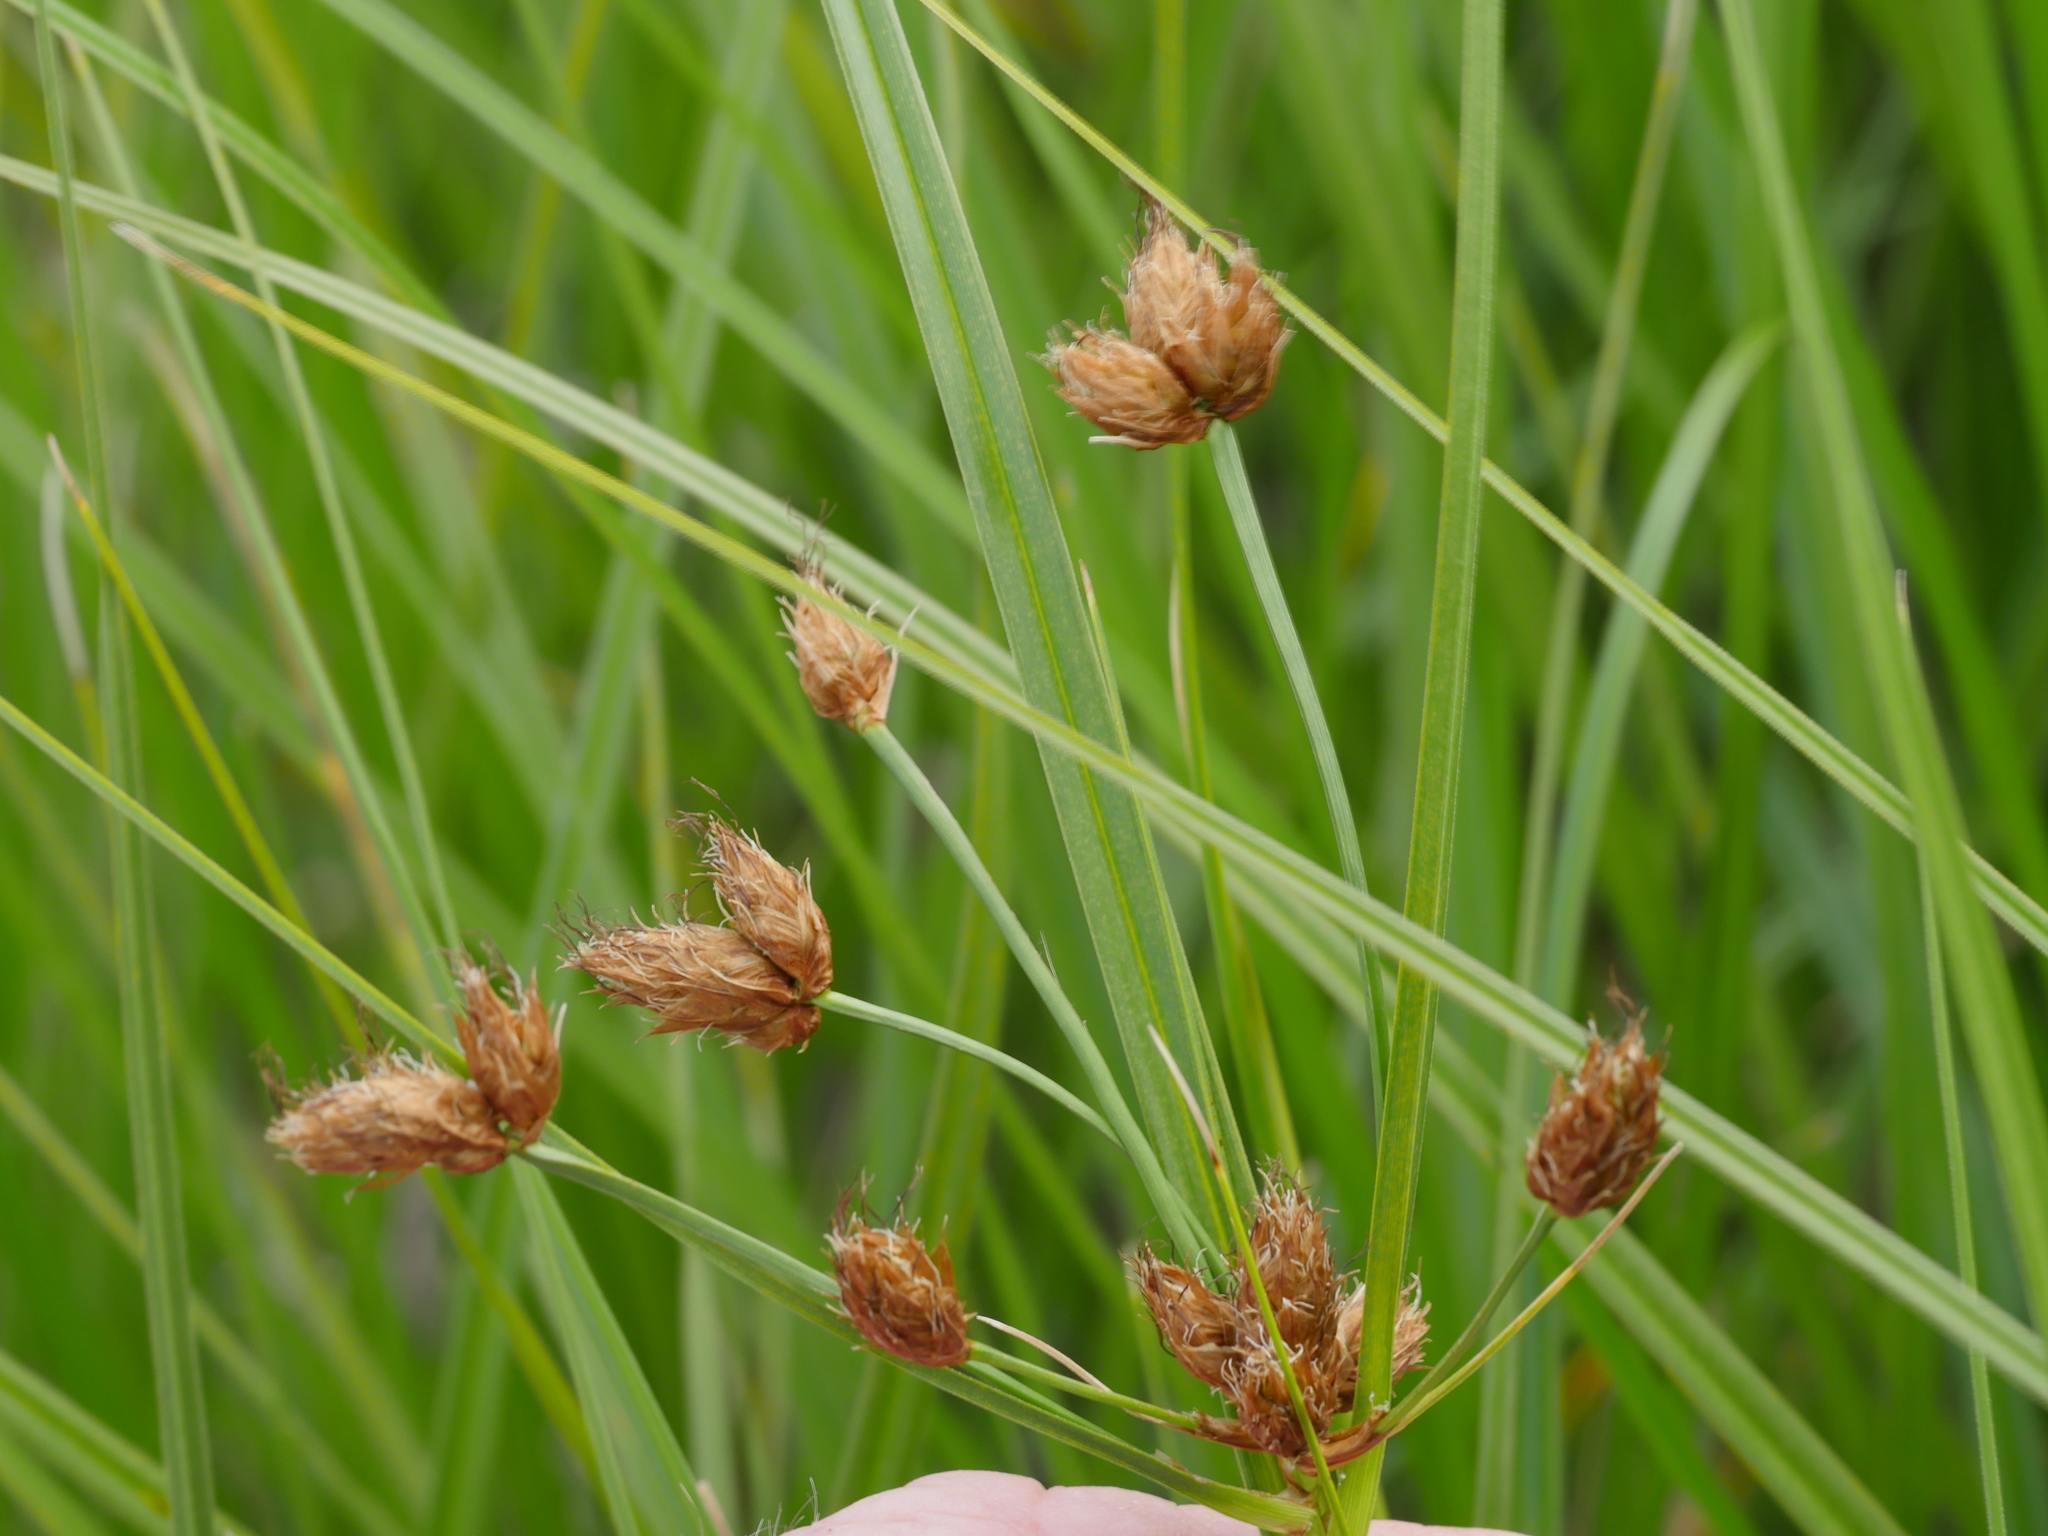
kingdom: Plantae
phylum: Tracheophyta
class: Liliopsida
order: Poales
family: Cyperaceae
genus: Bolboschoenus
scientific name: Bolboschoenus fluviatilis
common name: River bulrush
